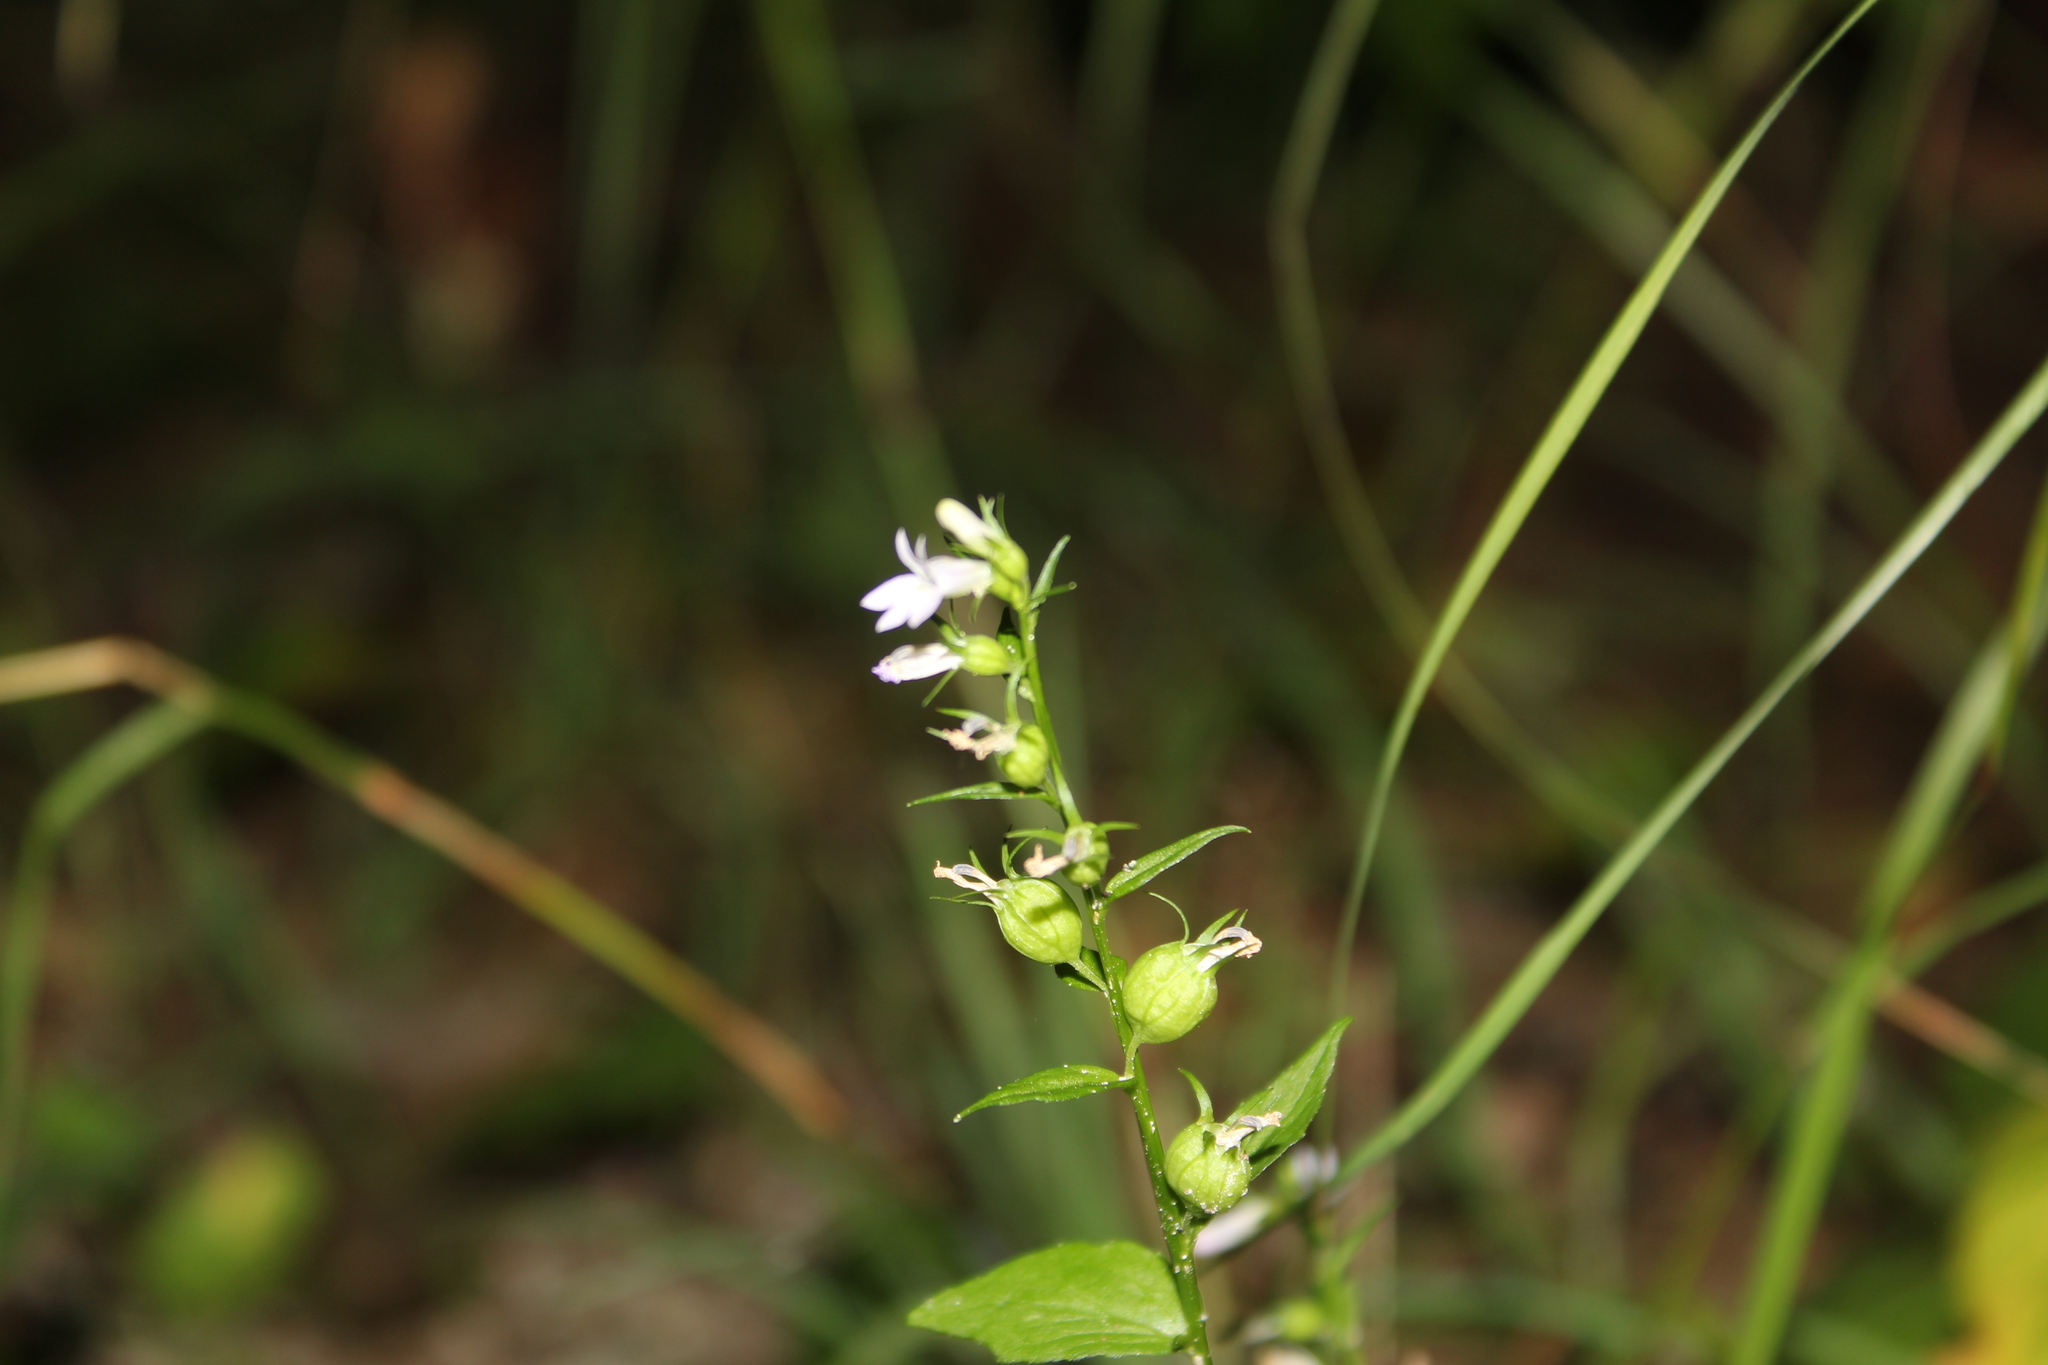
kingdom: Plantae
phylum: Tracheophyta
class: Magnoliopsida
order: Asterales
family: Campanulaceae
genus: Lobelia
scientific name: Lobelia inflata
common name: Indian tobacco
